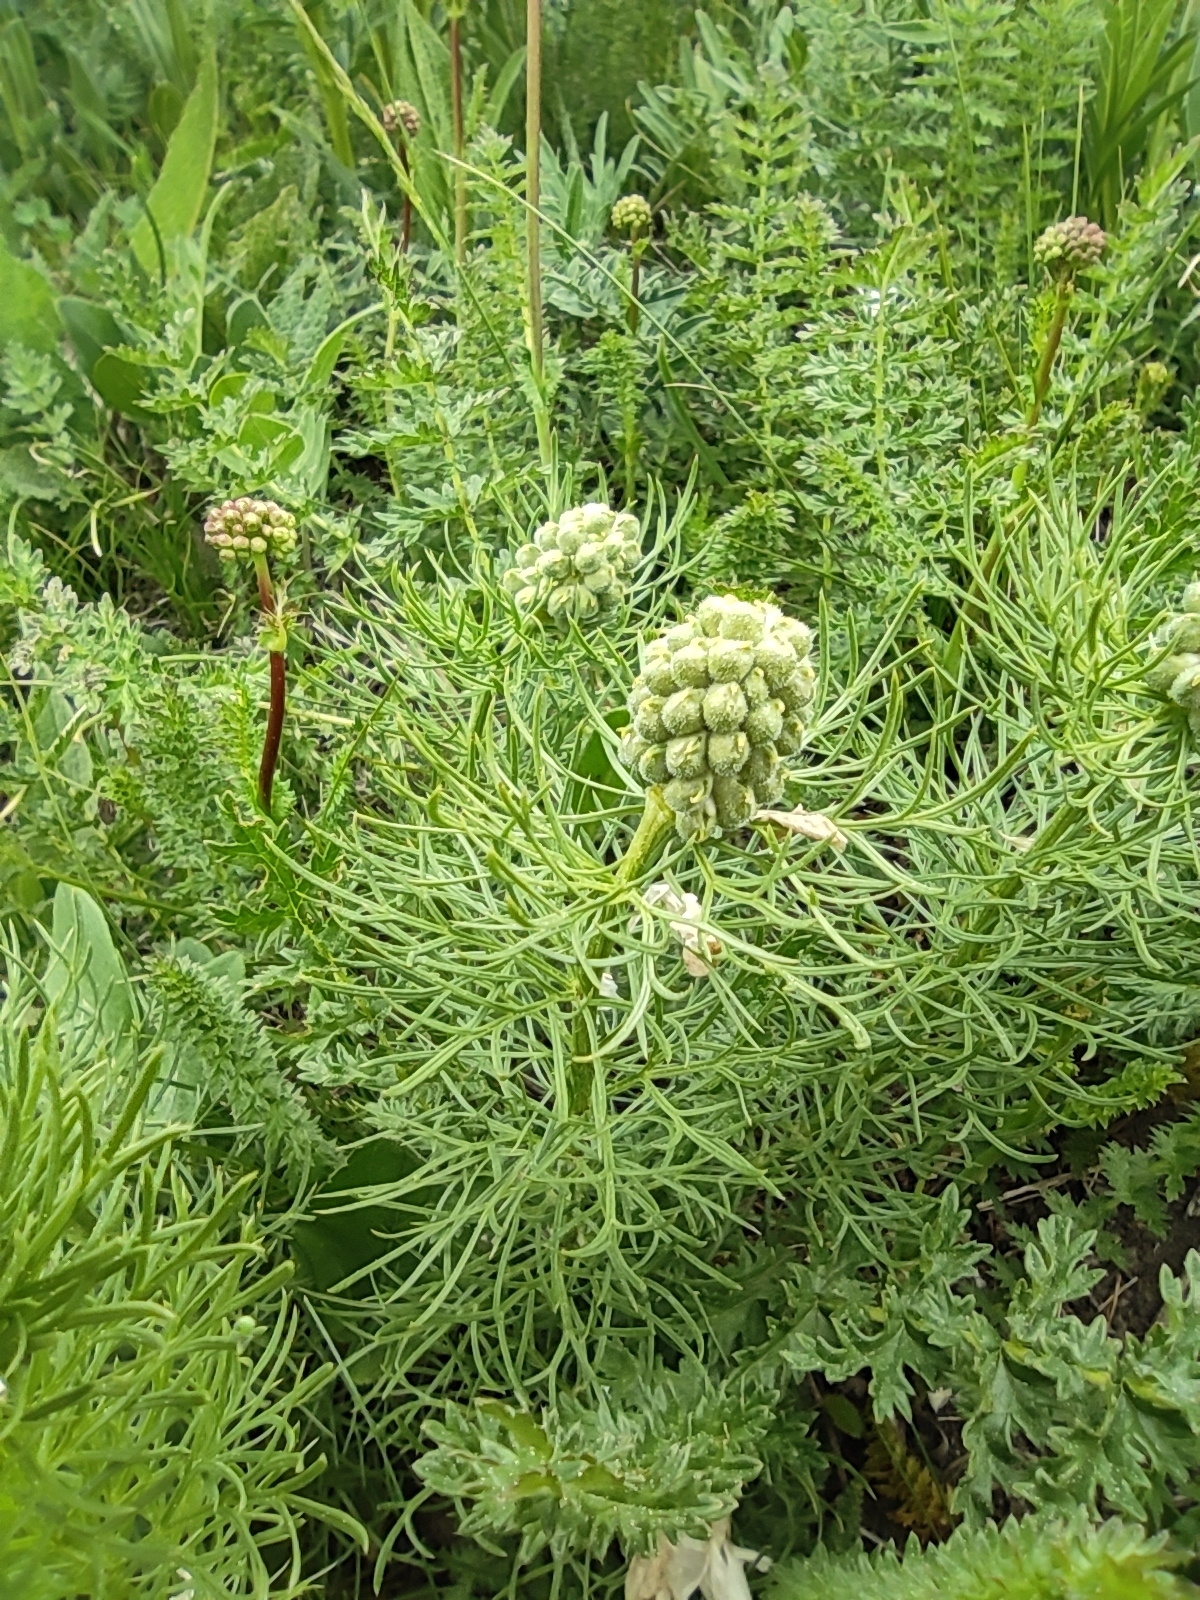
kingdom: Plantae
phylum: Tracheophyta
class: Magnoliopsida
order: Ranunculales
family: Ranunculaceae
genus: Adonis
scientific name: Adonis vernalis
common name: Yellow pheasants-eye
